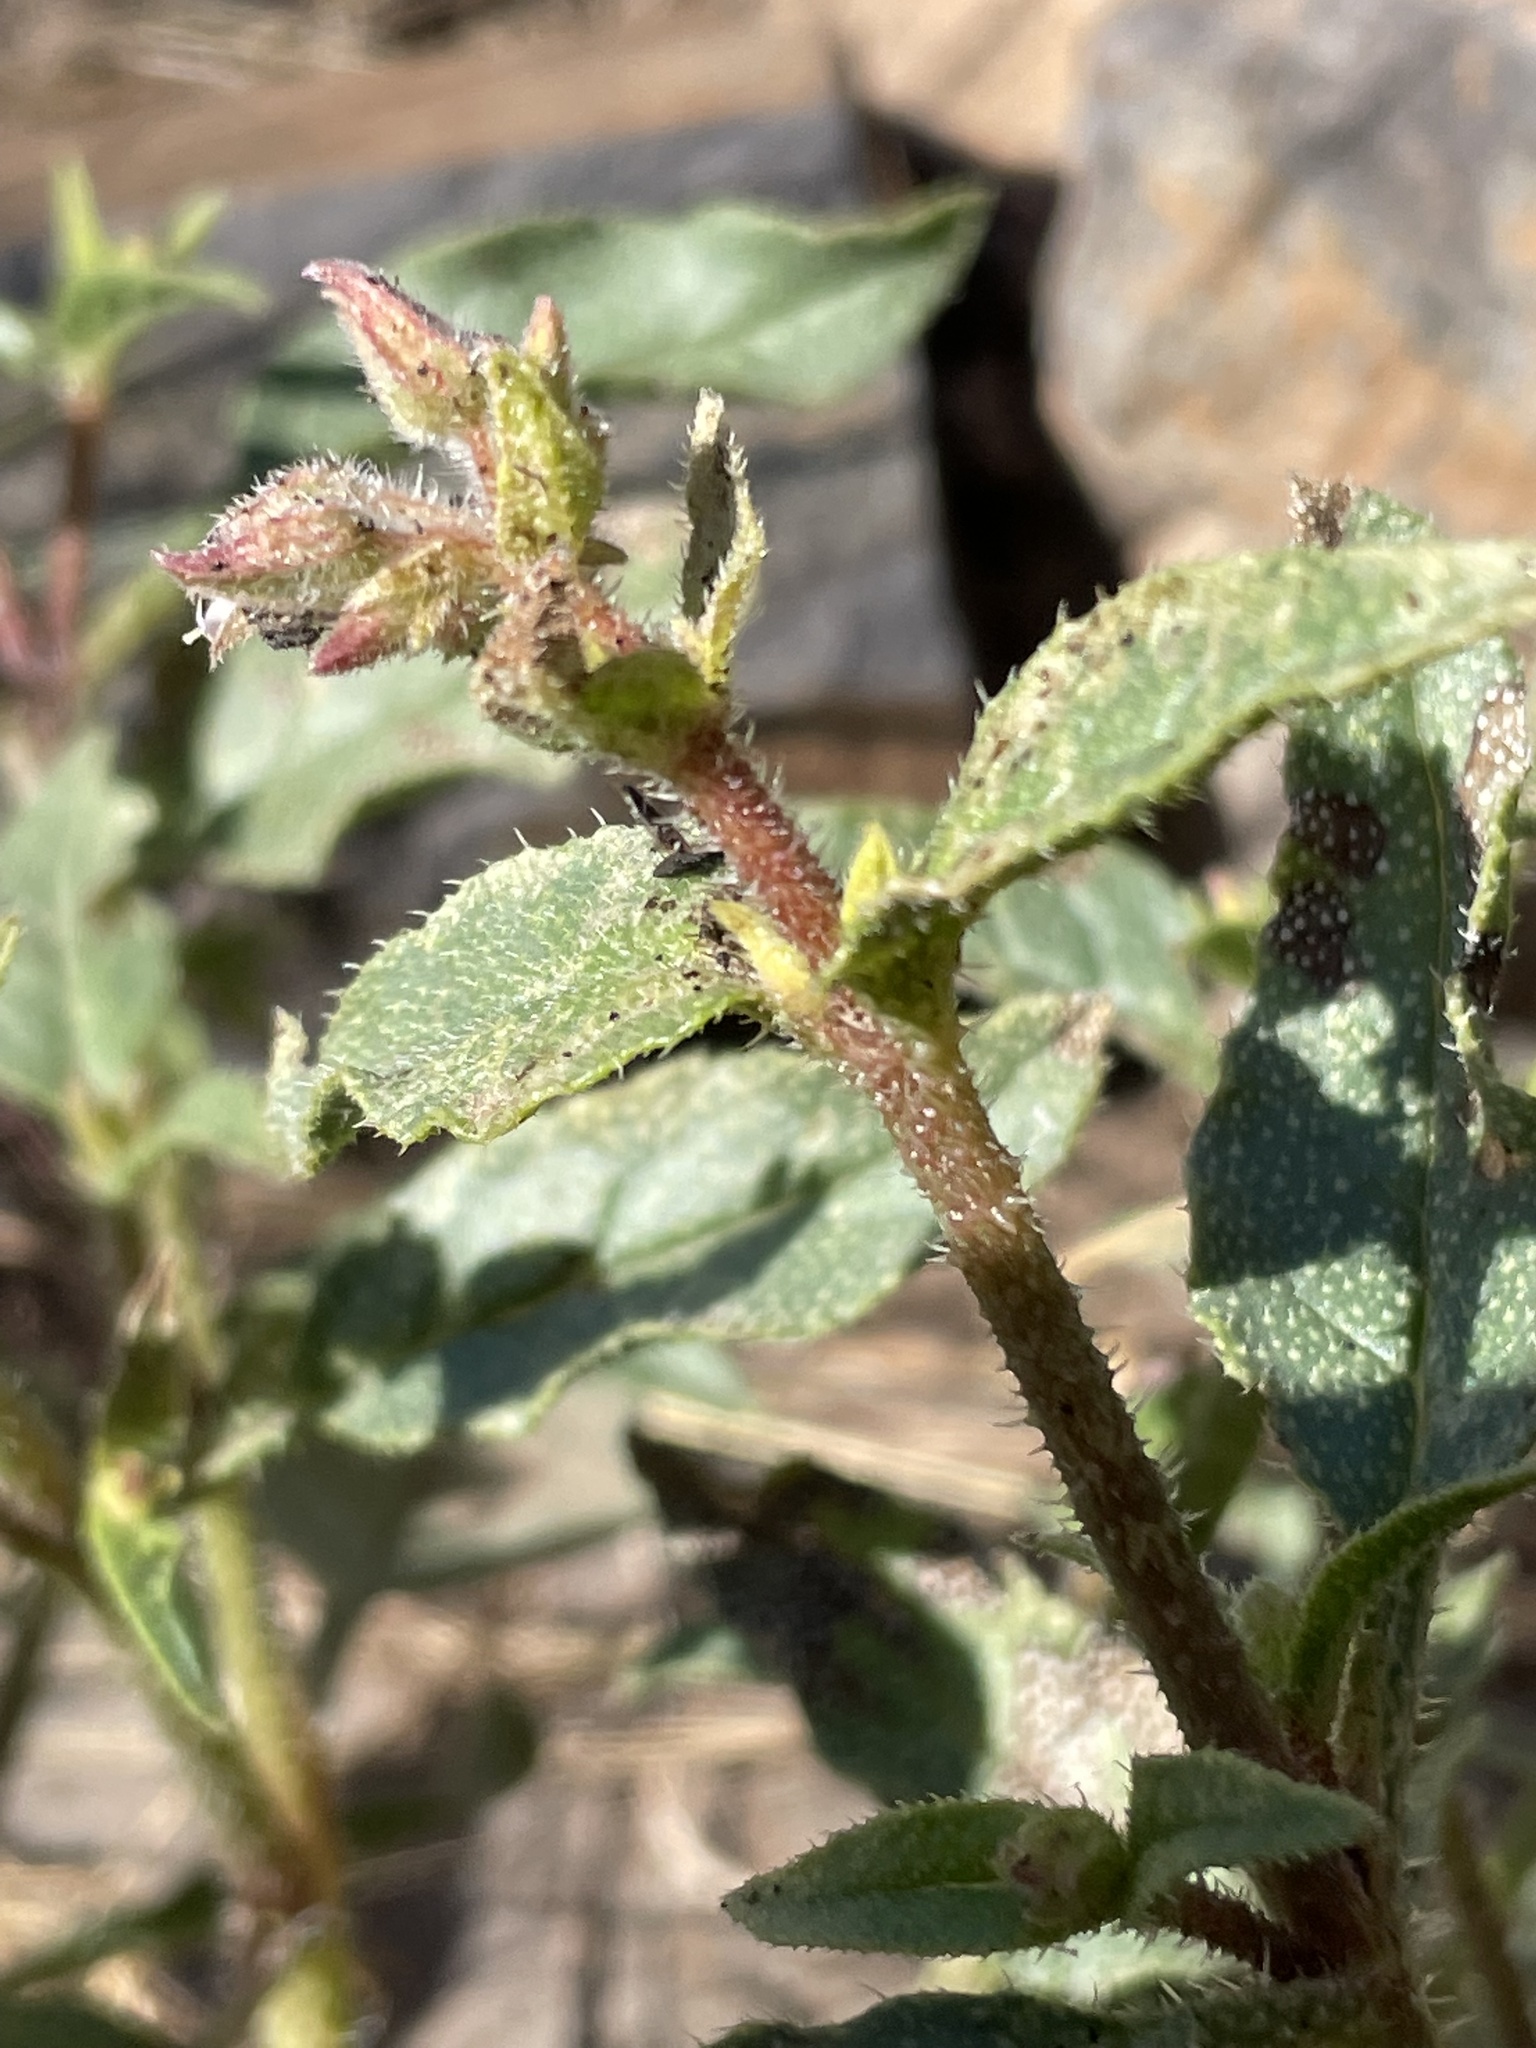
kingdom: Plantae
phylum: Tracheophyta
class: Magnoliopsida
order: Boraginales
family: Boraginaceae
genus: Trichodesma
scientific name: Trichodesma africanum
